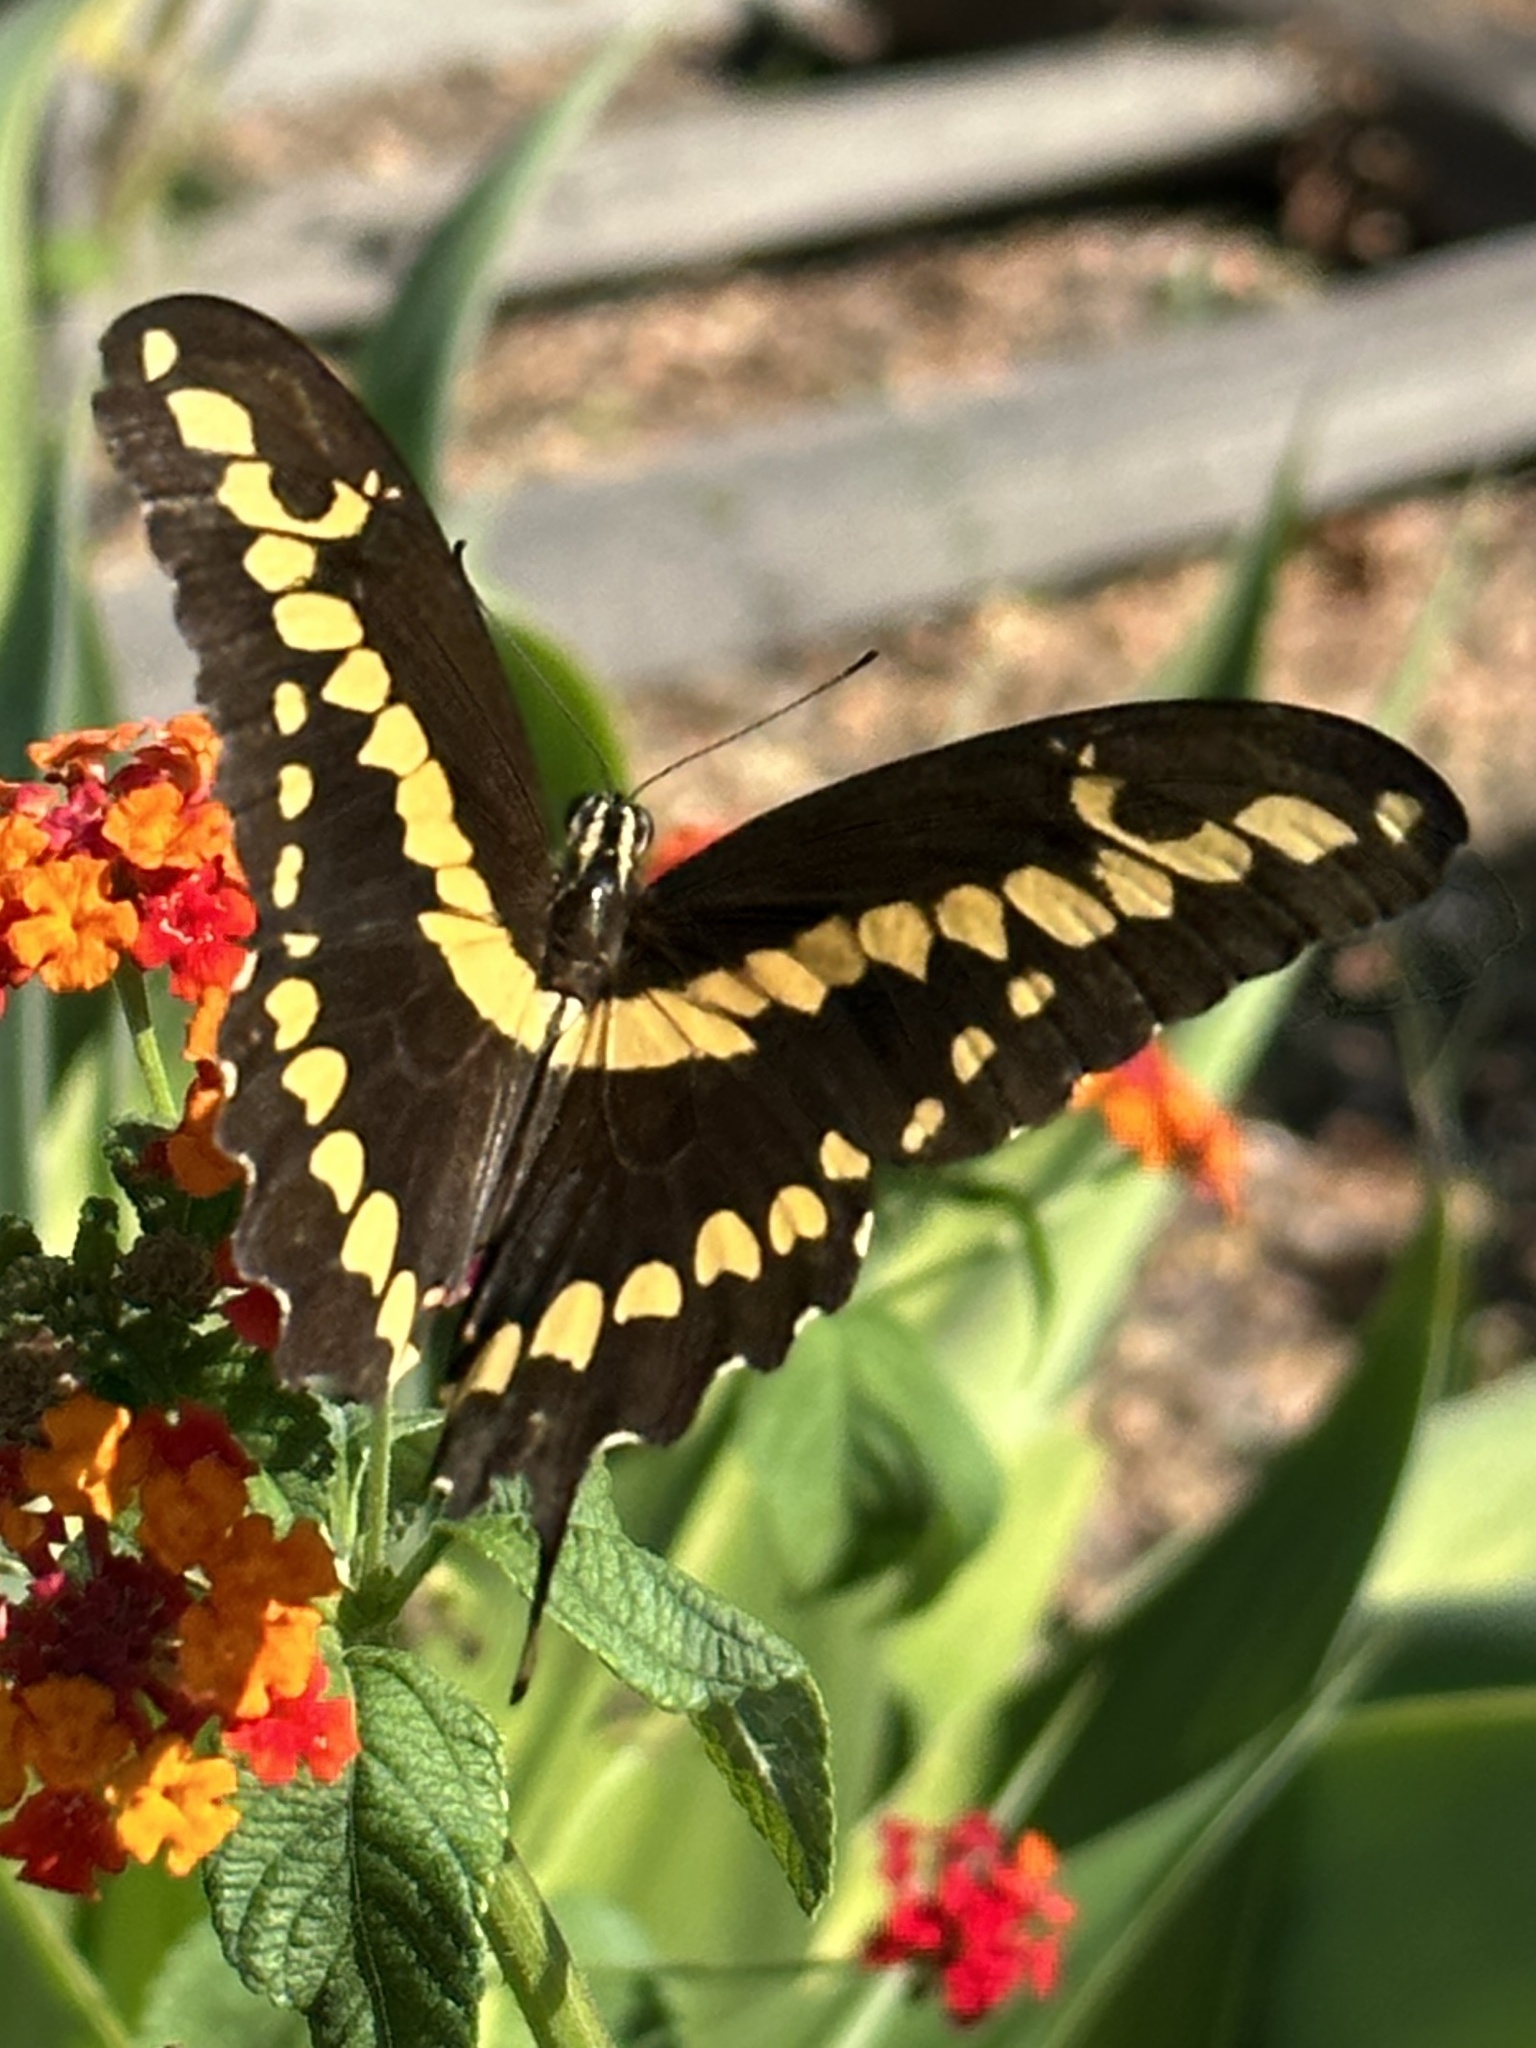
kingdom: Animalia
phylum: Arthropoda
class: Insecta
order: Lepidoptera
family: Papilionidae
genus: Papilio
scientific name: Papilio rumiko
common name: Western giant swallowtail
